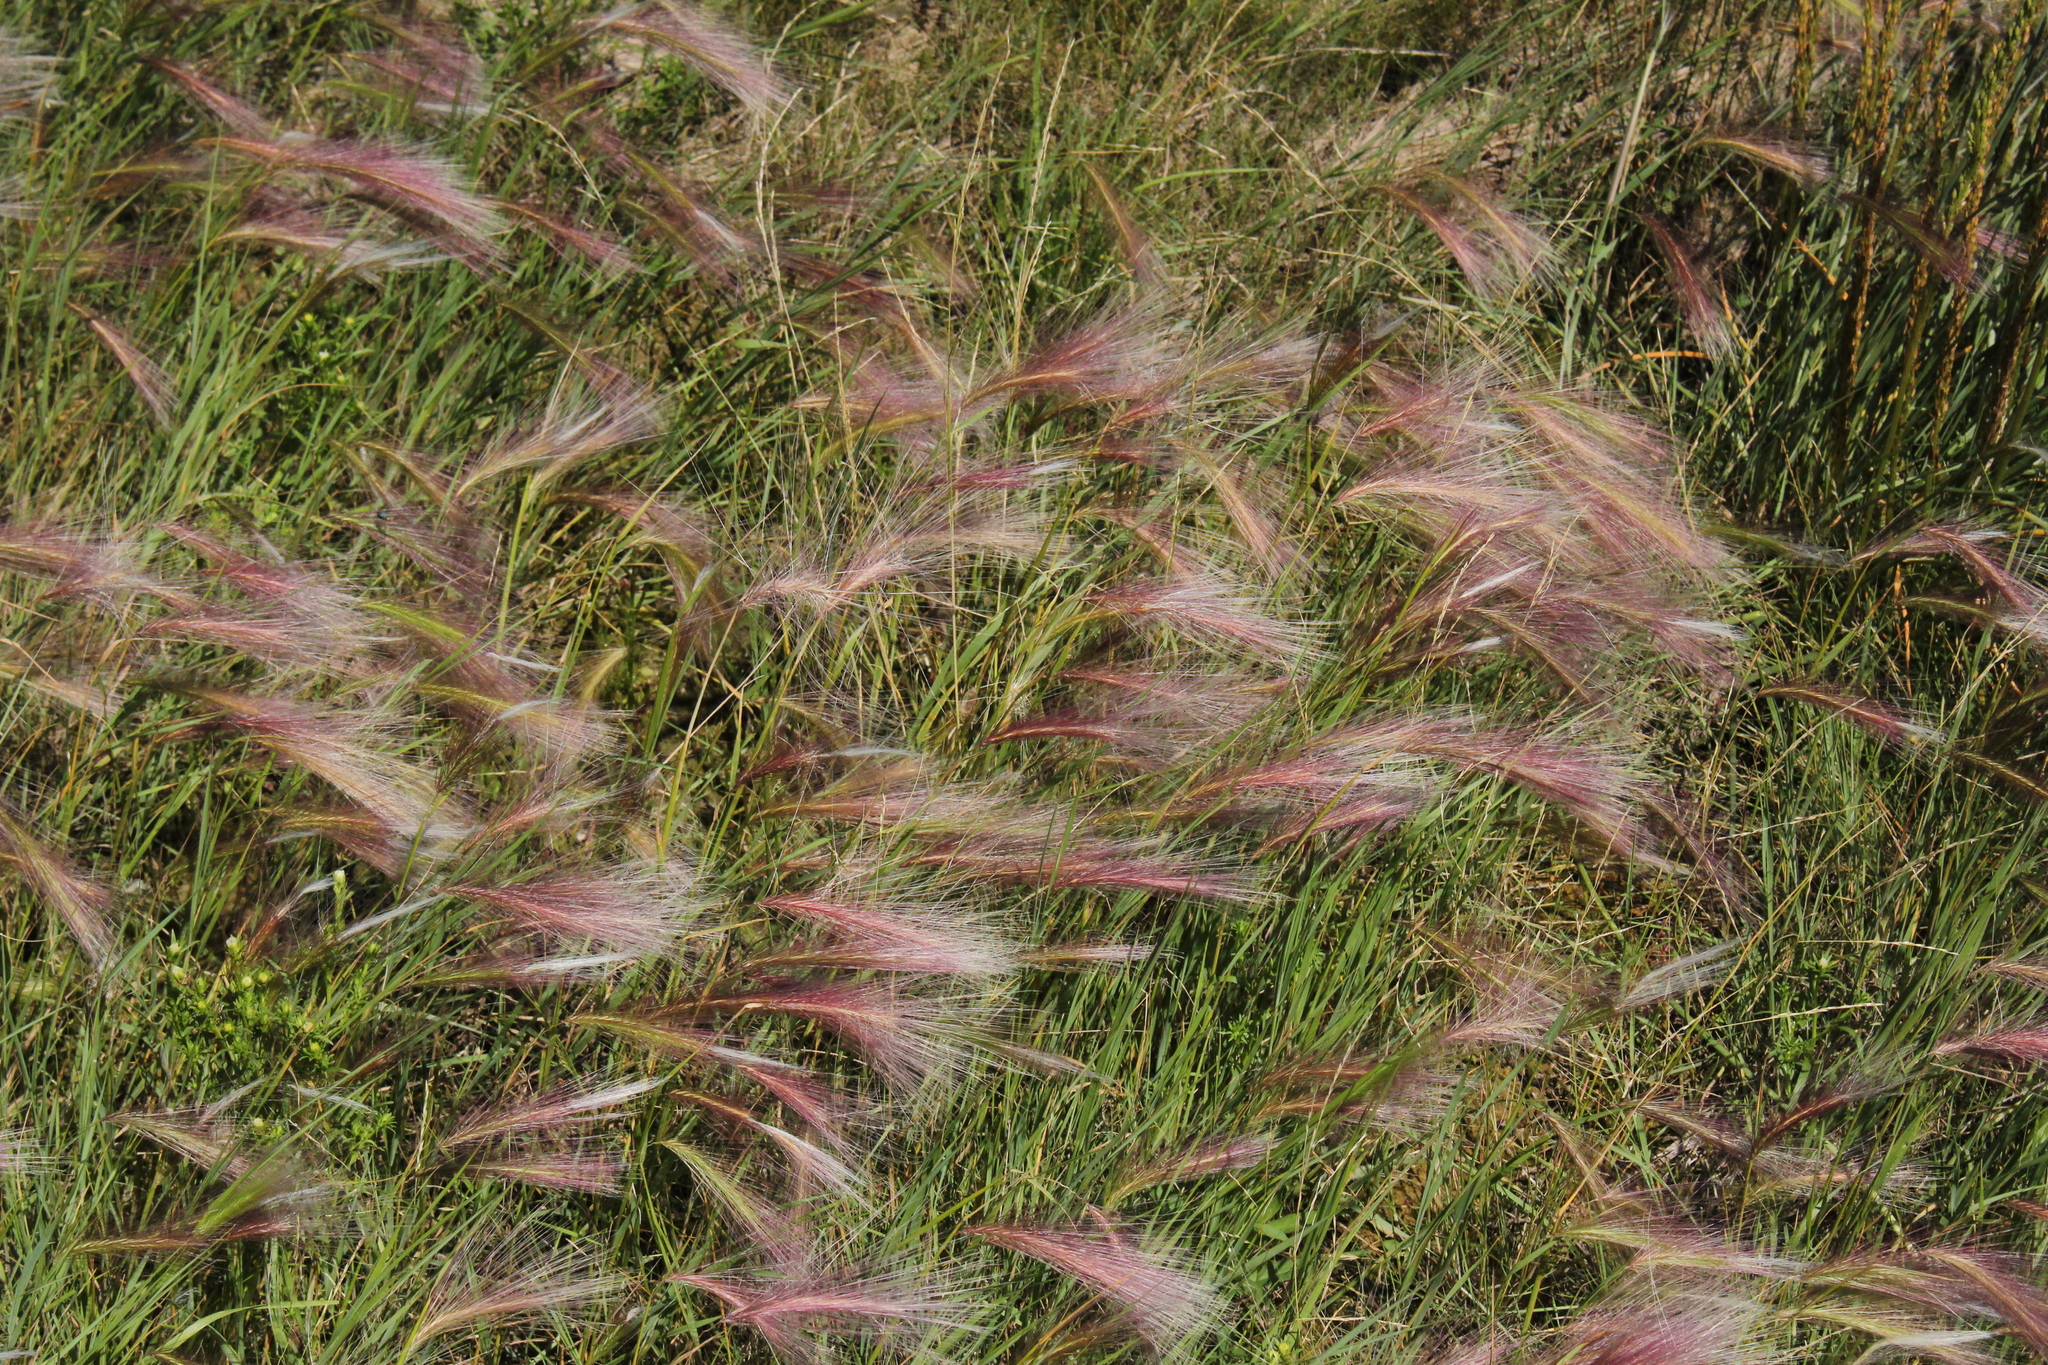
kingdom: Plantae
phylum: Tracheophyta
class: Liliopsida
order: Poales
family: Poaceae
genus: Hordeum
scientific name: Hordeum jubatum
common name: Foxtail barley
